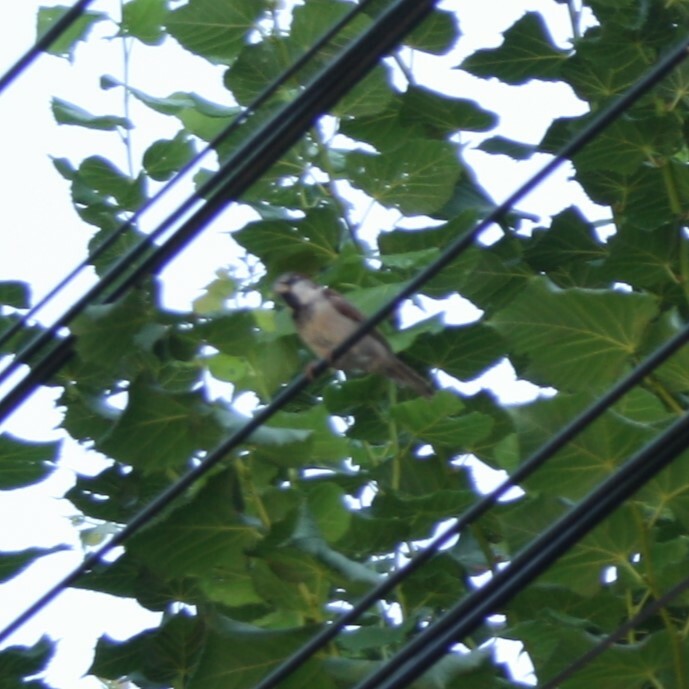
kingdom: Animalia
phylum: Chordata
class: Aves
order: Passeriformes
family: Passeridae
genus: Passer
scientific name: Passer domesticus
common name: House sparrow
